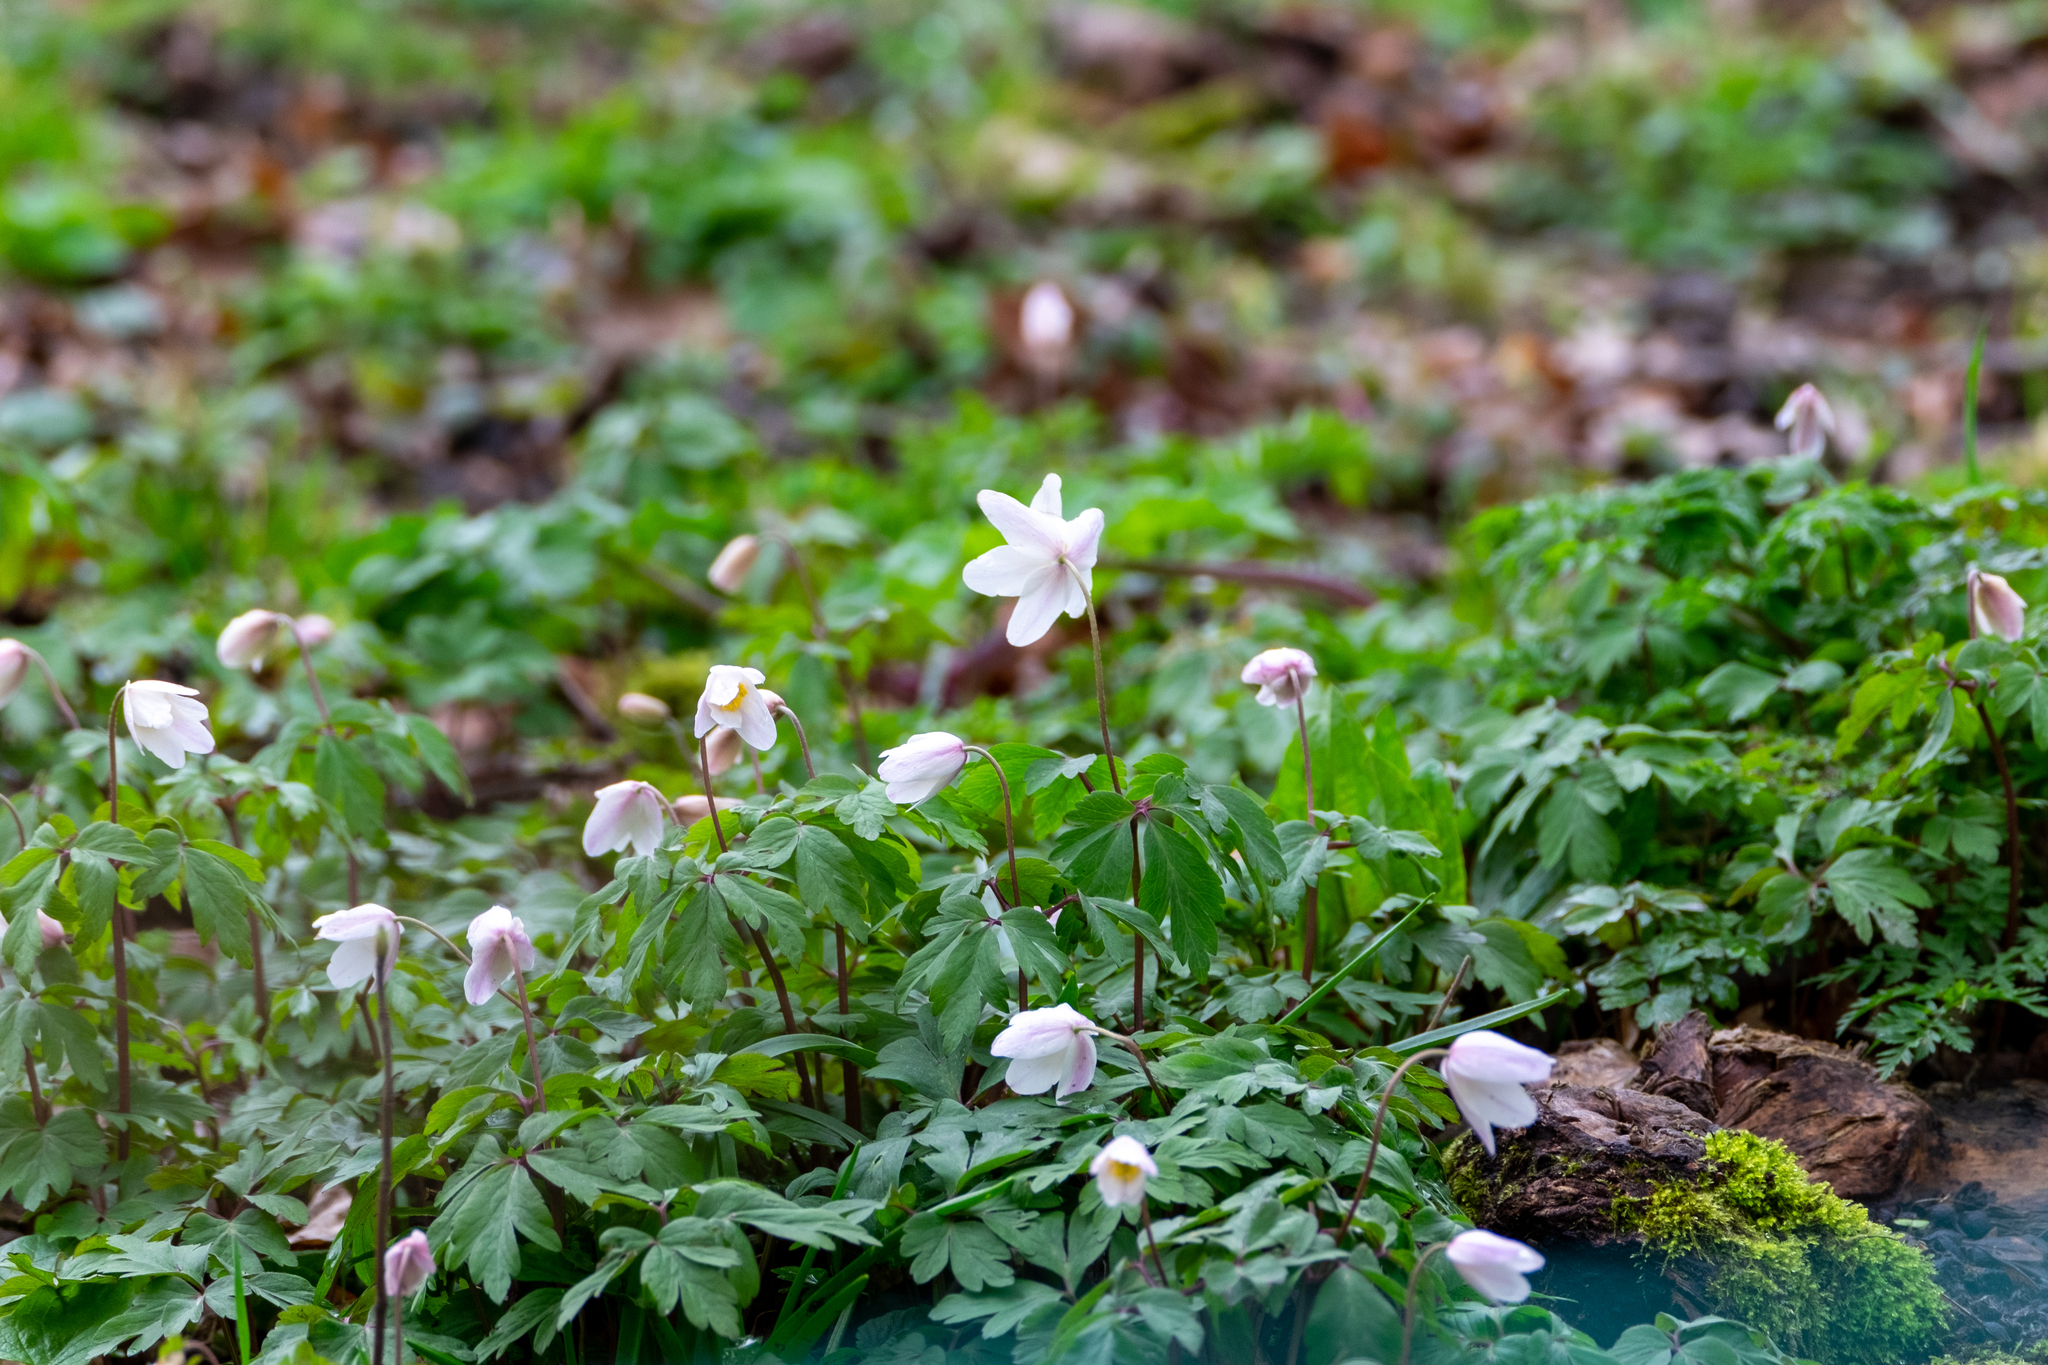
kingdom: Plantae
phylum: Tracheophyta
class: Magnoliopsida
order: Ranunculales
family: Ranunculaceae
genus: Anemone
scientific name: Anemone nemorosa
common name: Wood anemone
